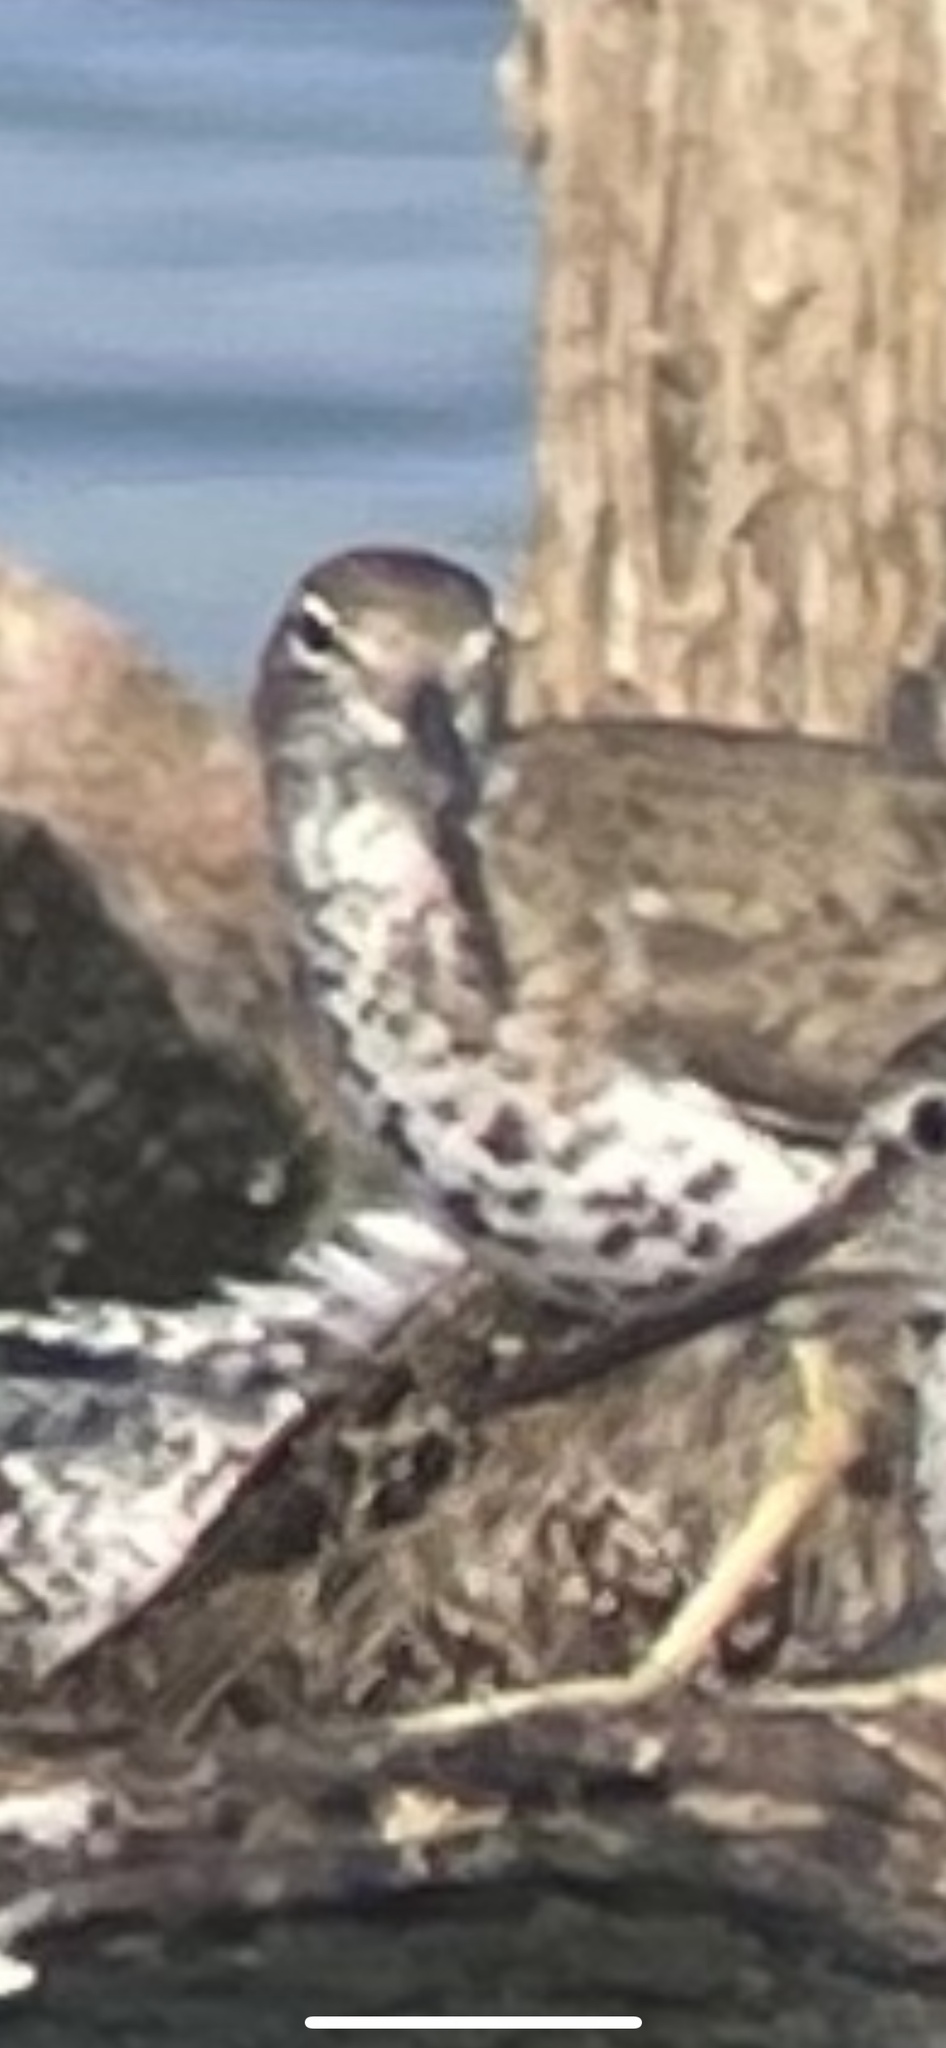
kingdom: Animalia
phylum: Chordata
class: Aves
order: Charadriiformes
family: Scolopacidae
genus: Actitis
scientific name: Actitis macularius
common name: Spotted sandpiper
